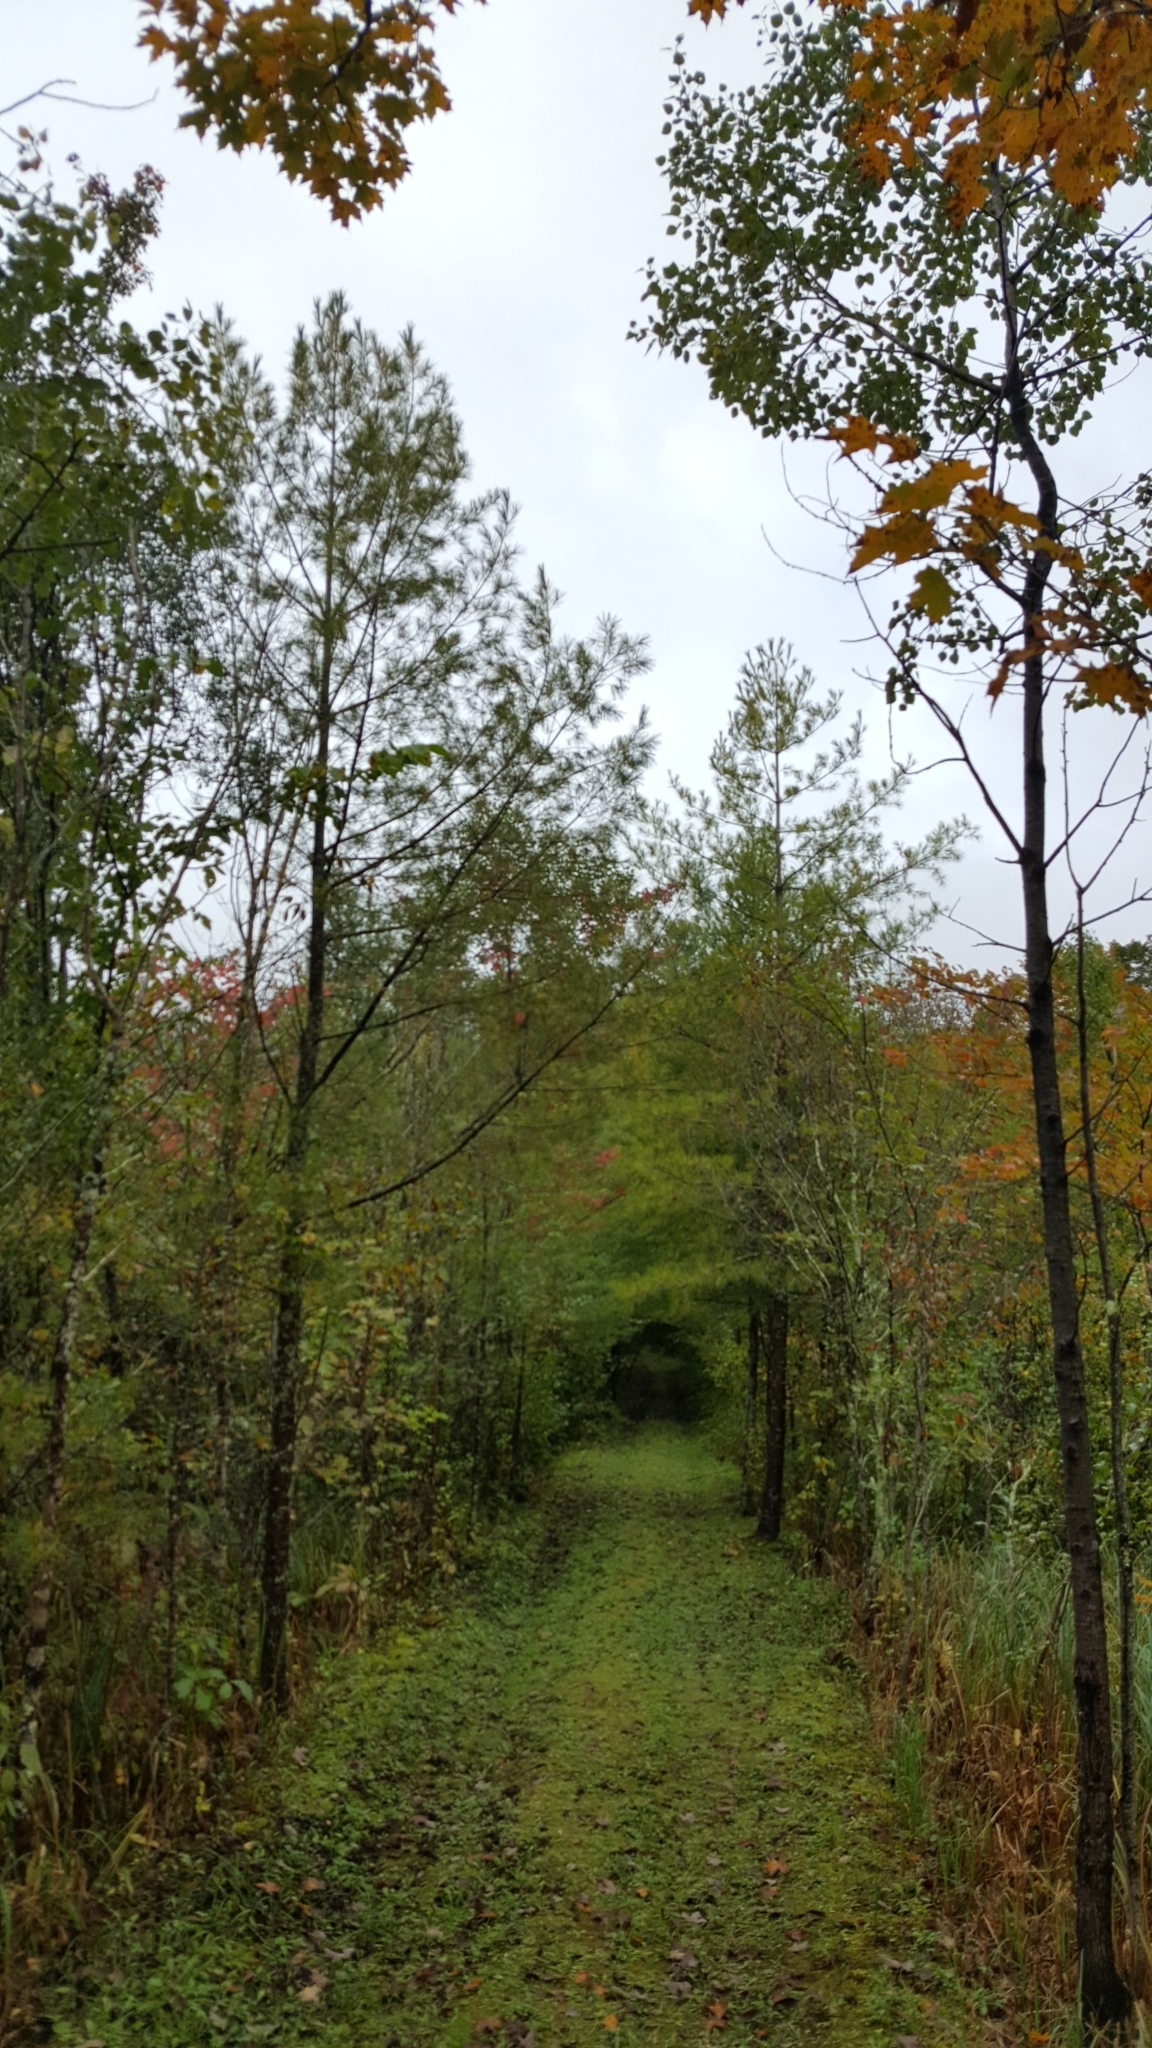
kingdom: Plantae
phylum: Tracheophyta
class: Pinopsida
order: Pinales
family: Pinaceae
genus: Pinus
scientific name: Pinus strobus
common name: Weymouth pine
